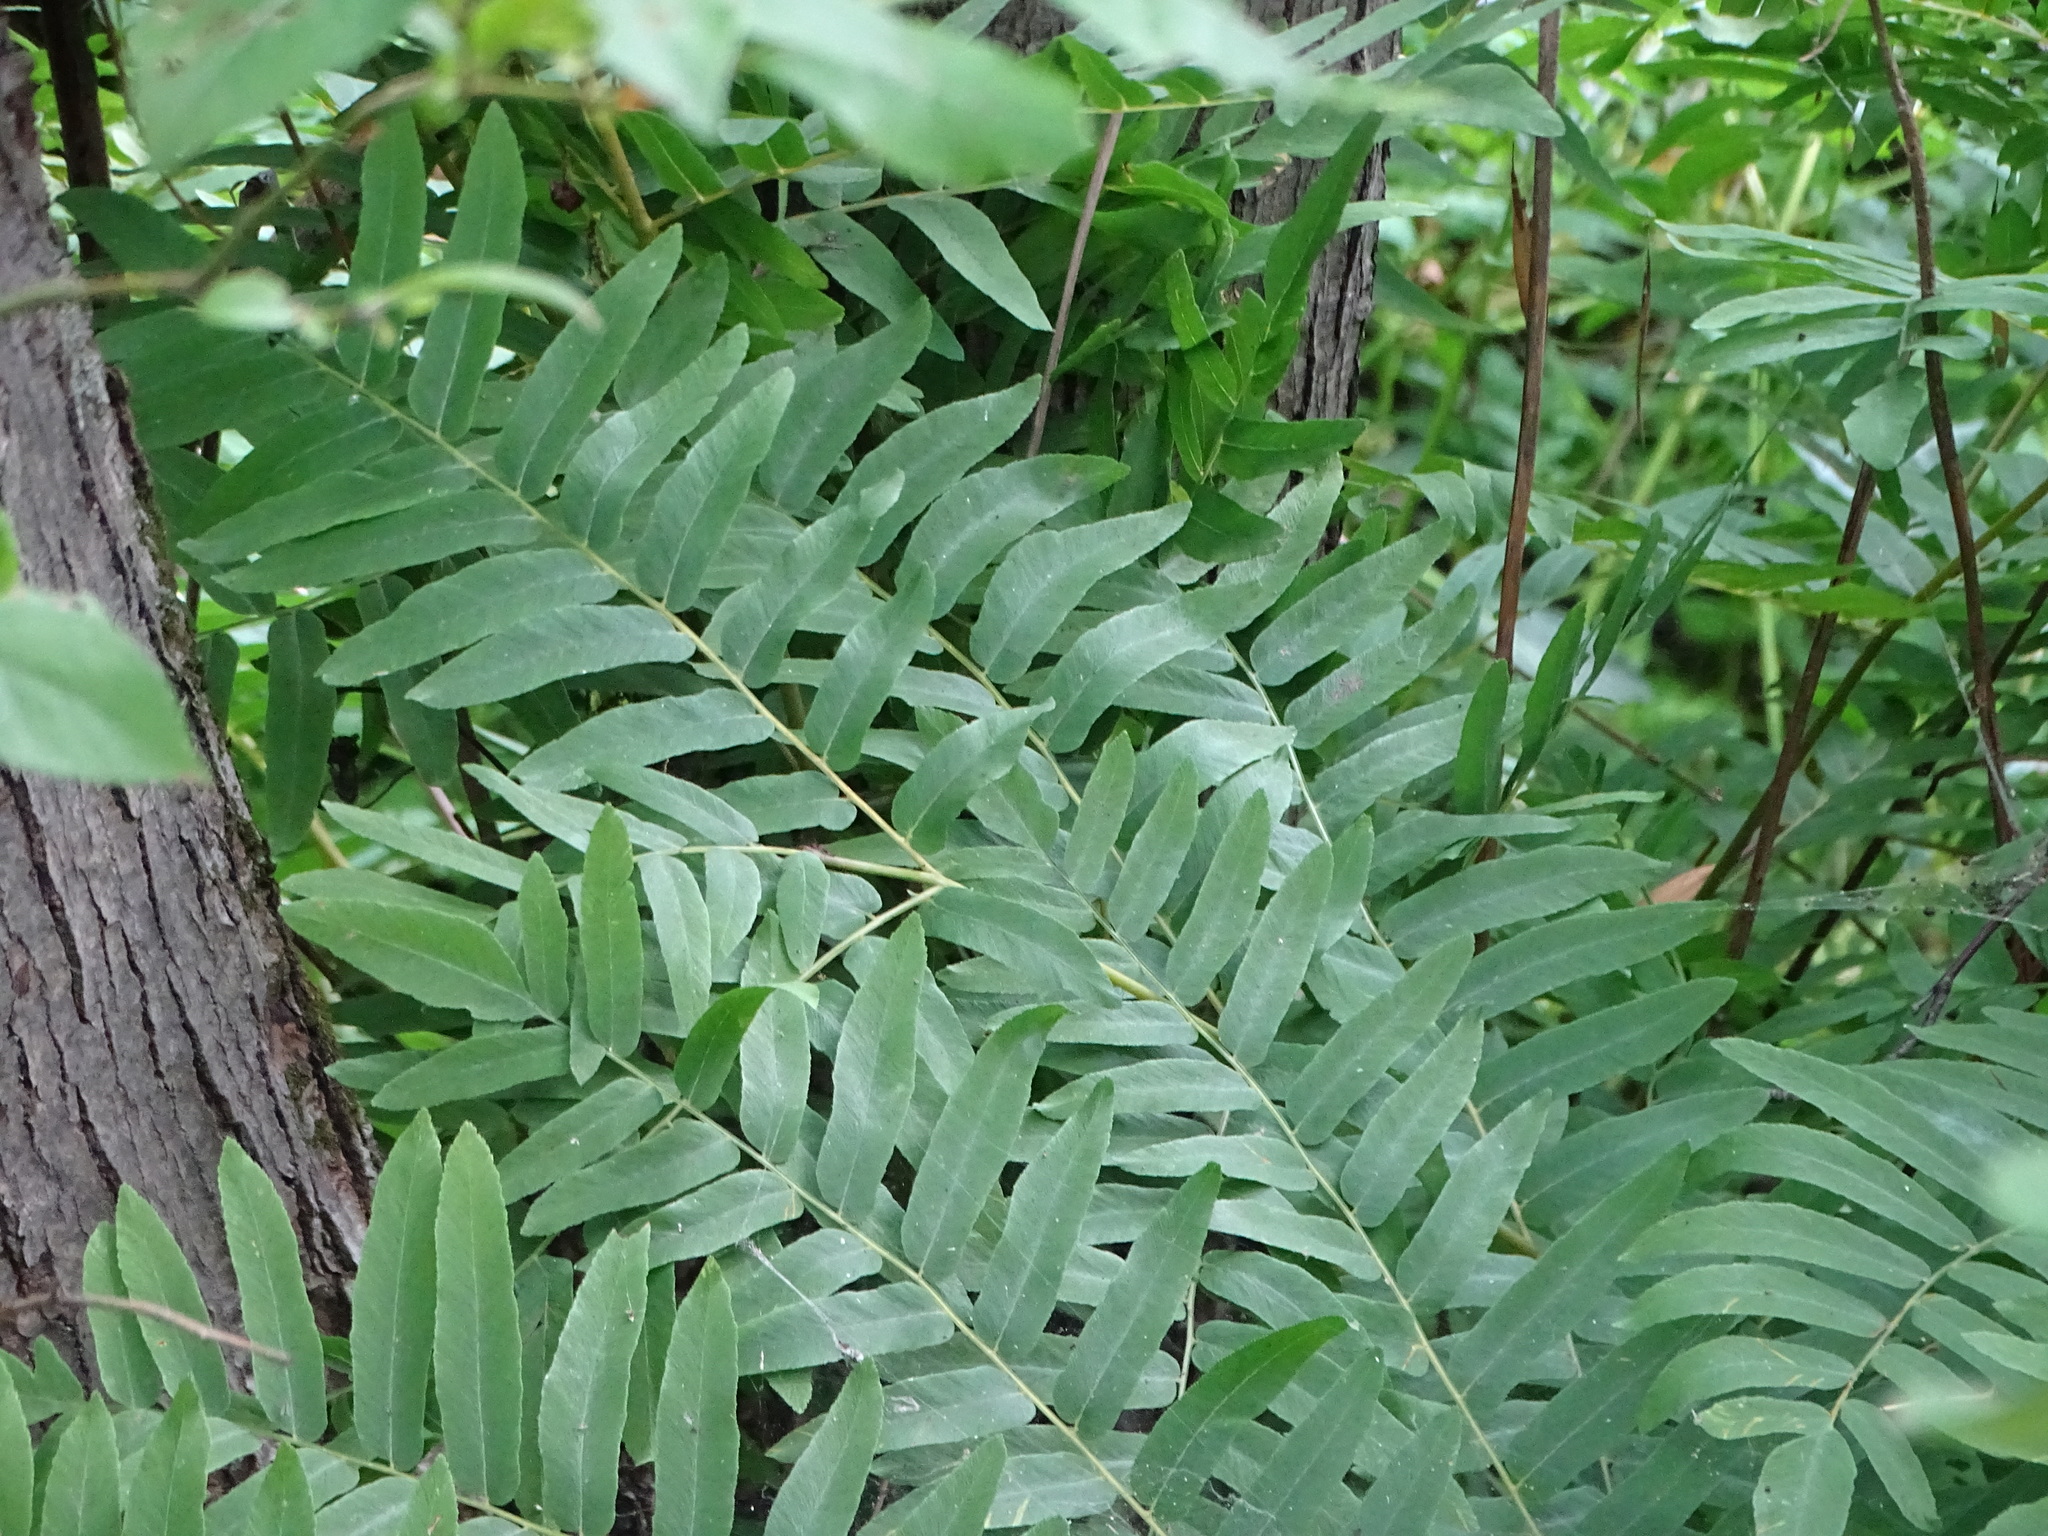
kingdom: Plantae
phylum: Tracheophyta
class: Polypodiopsida
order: Osmundales
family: Osmundaceae
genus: Osmunda
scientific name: Osmunda spectabilis
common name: American royal fern
